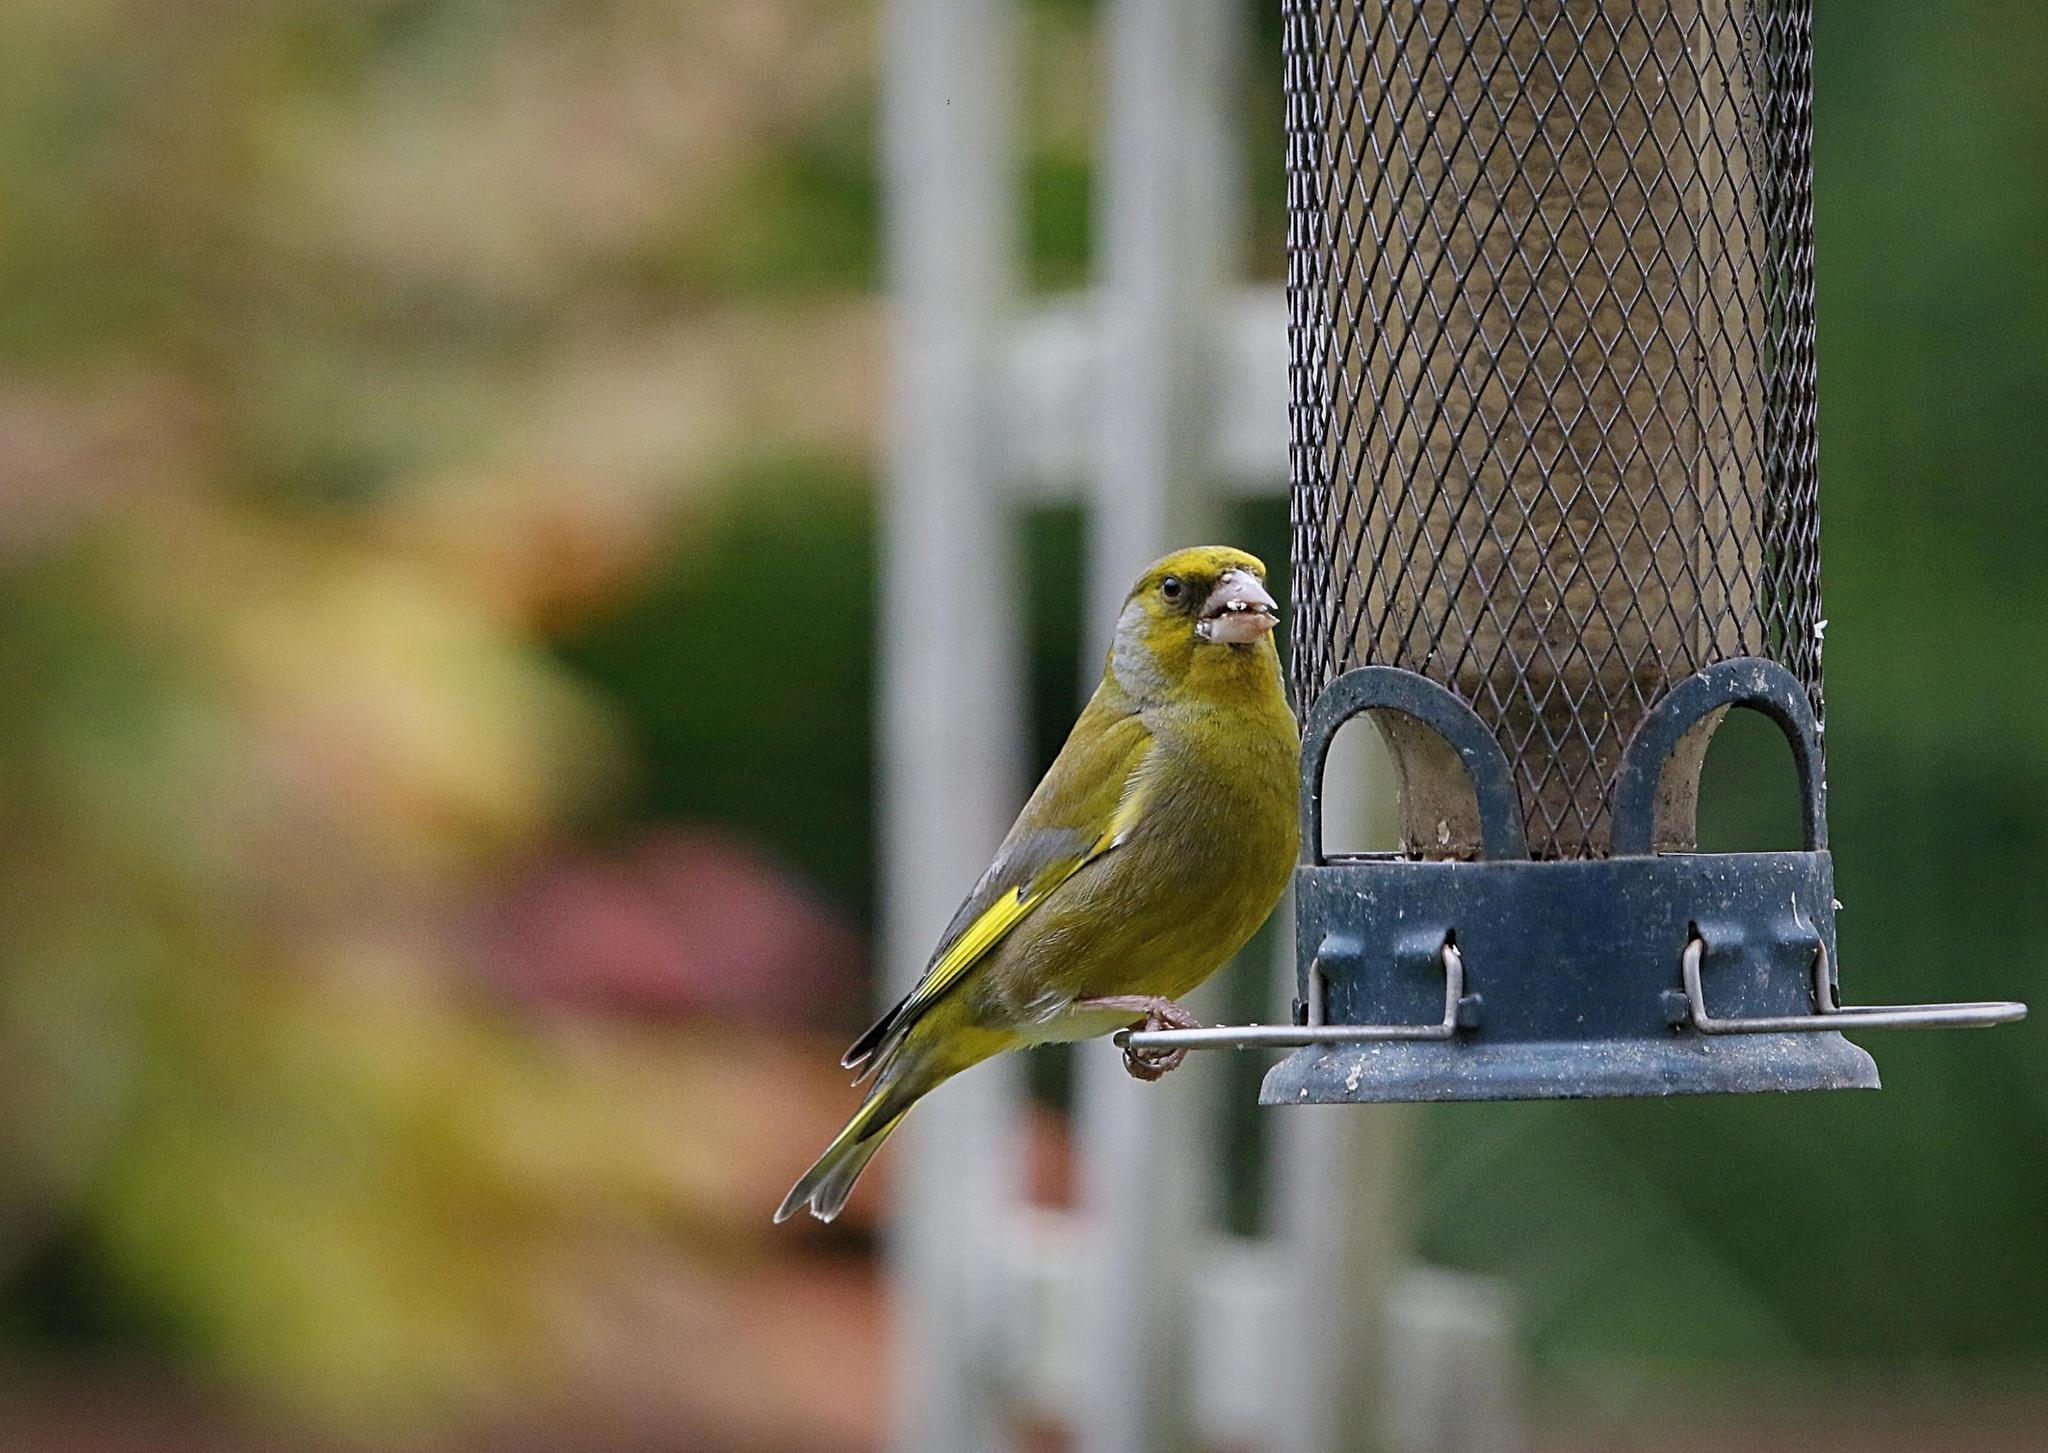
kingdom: Plantae
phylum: Tracheophyta
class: Liliopsida
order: Poales
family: Poaceae
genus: Chloris
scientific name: Chloris chloris
